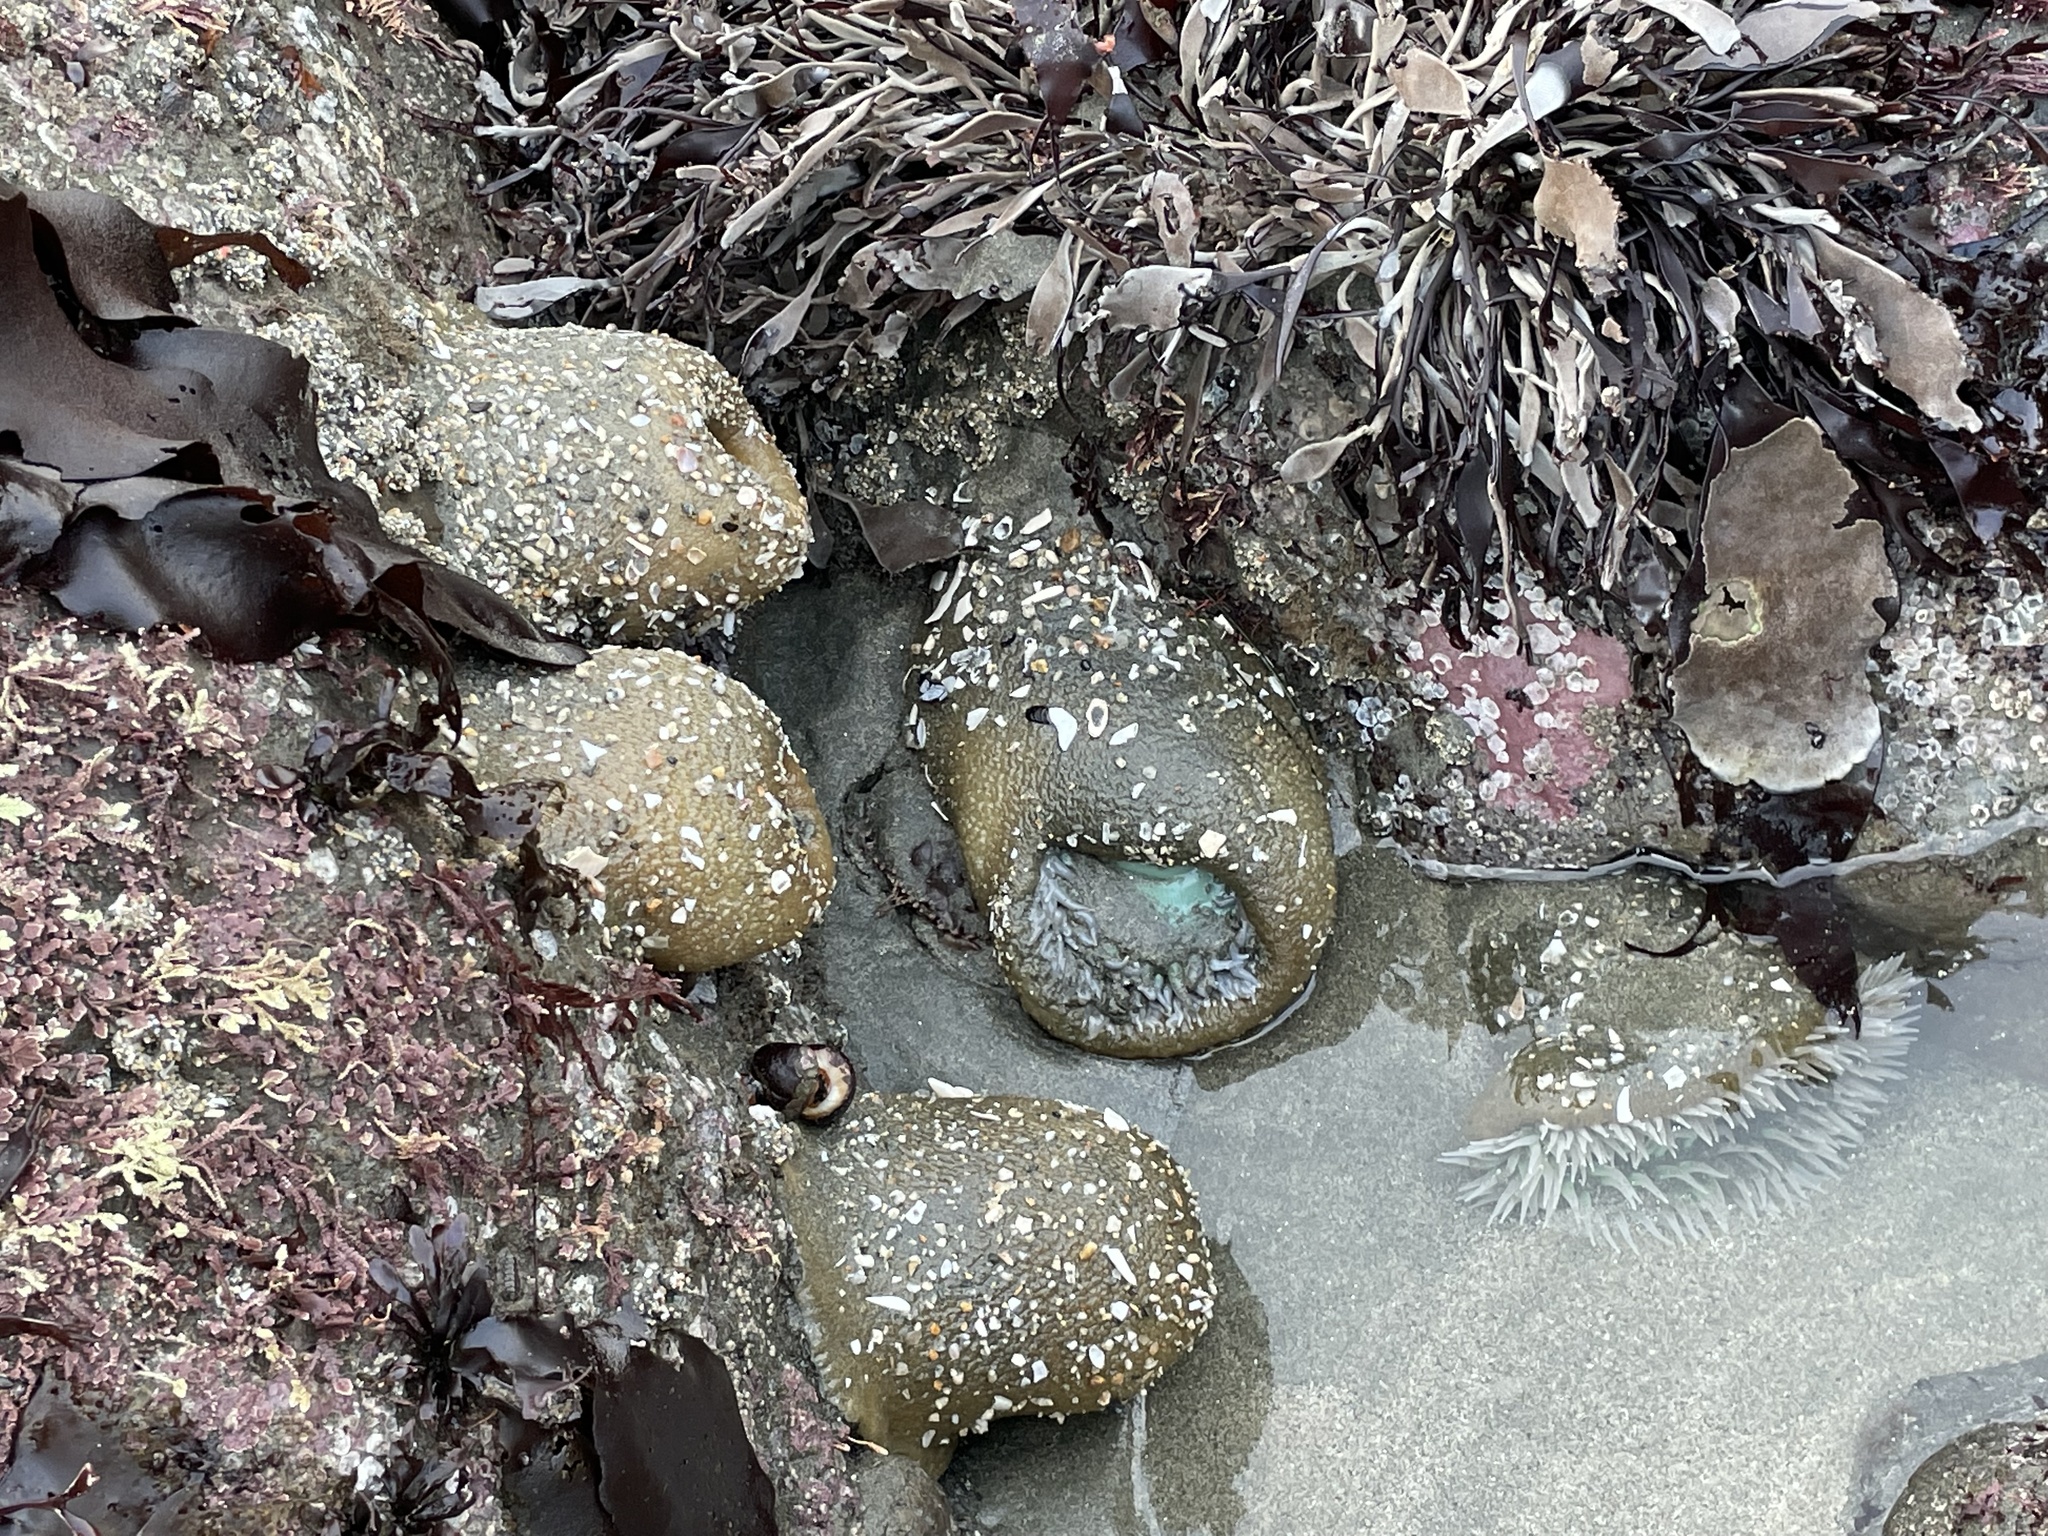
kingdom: Animalia
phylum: Cnidaria
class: Anthozoa
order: Actiniaria
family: Actiniidae
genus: Anthopleura
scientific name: Anthopleura xanthogrammica
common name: Giant green anemone
